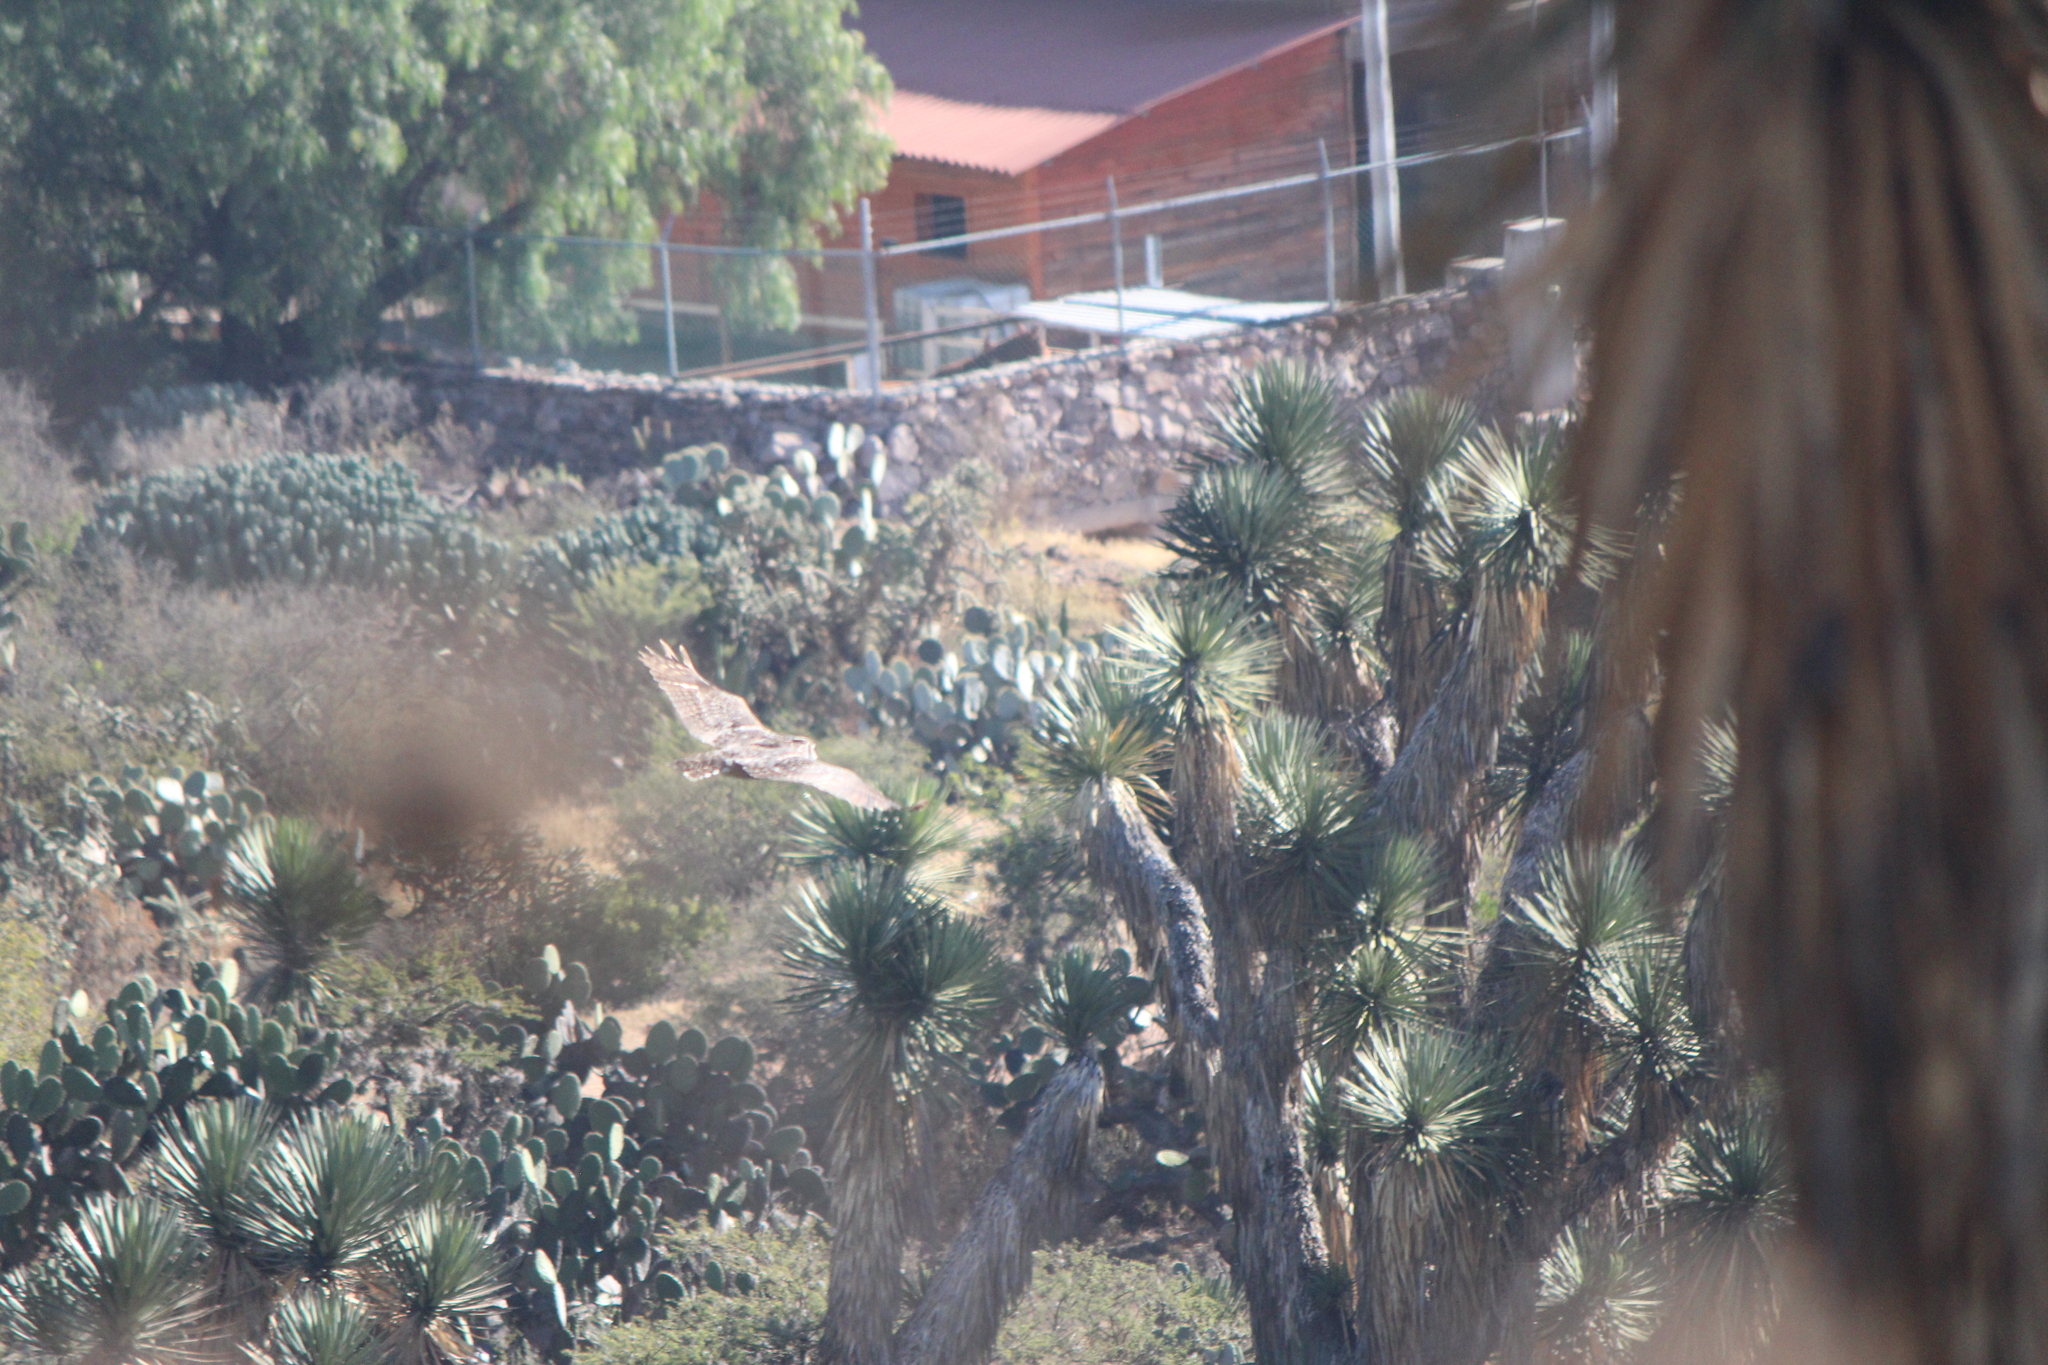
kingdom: Animalia
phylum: Chordata
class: Aves
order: Strigiformes
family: Strigidae
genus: Bubo
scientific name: Bubo virginianus
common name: Great horned owl
